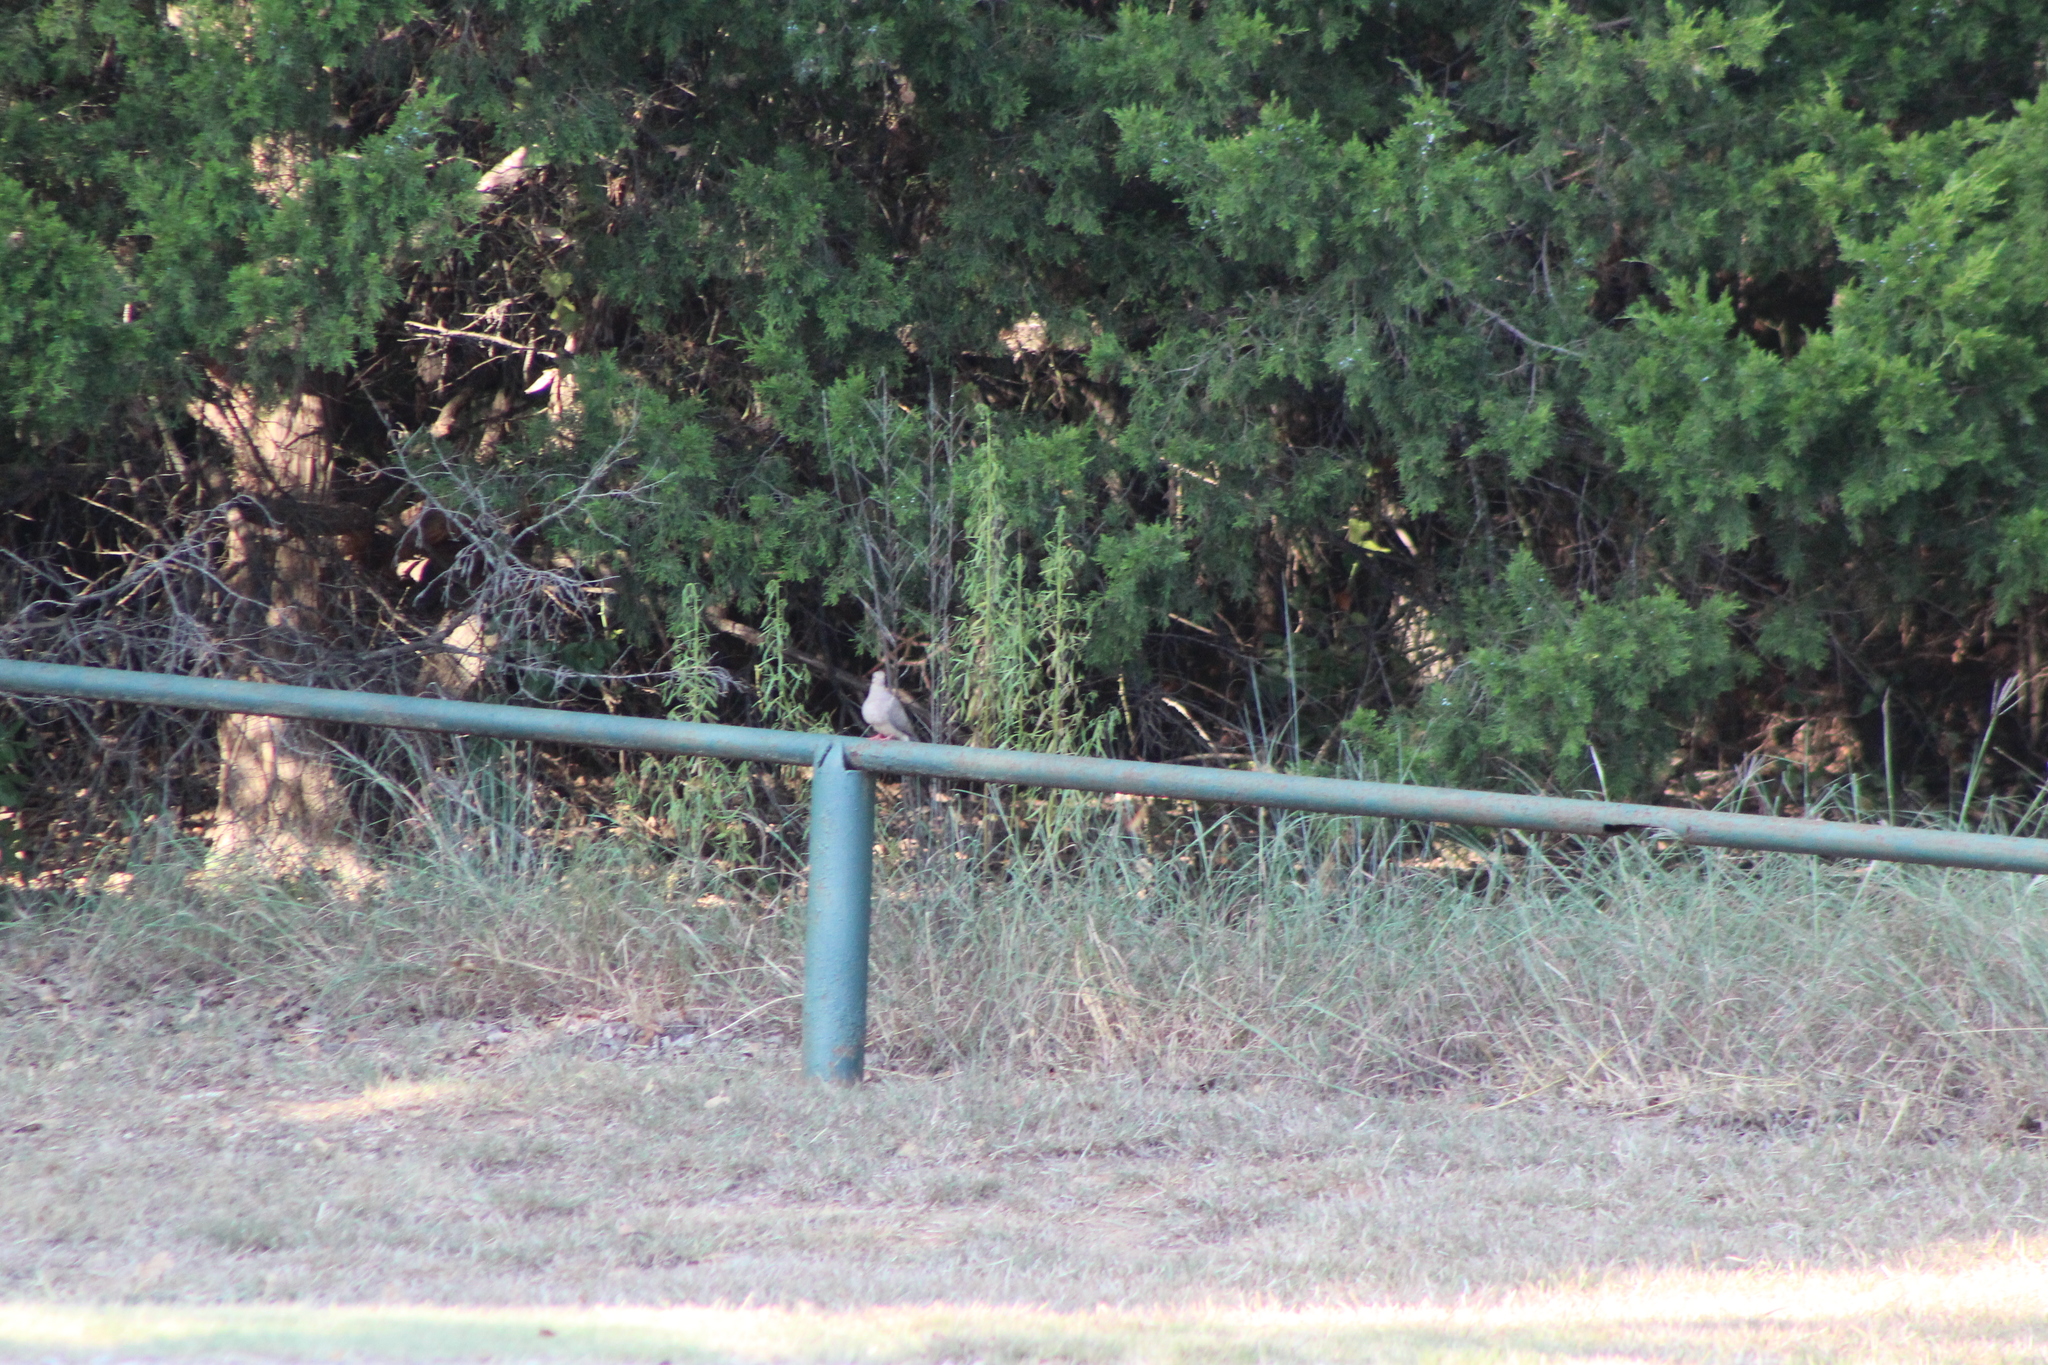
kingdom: Animalia
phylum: Chordata
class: Aves
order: Columbiformes
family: Columbidae
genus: Zenaida
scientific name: Zenaida macroura
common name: Mourning dove
